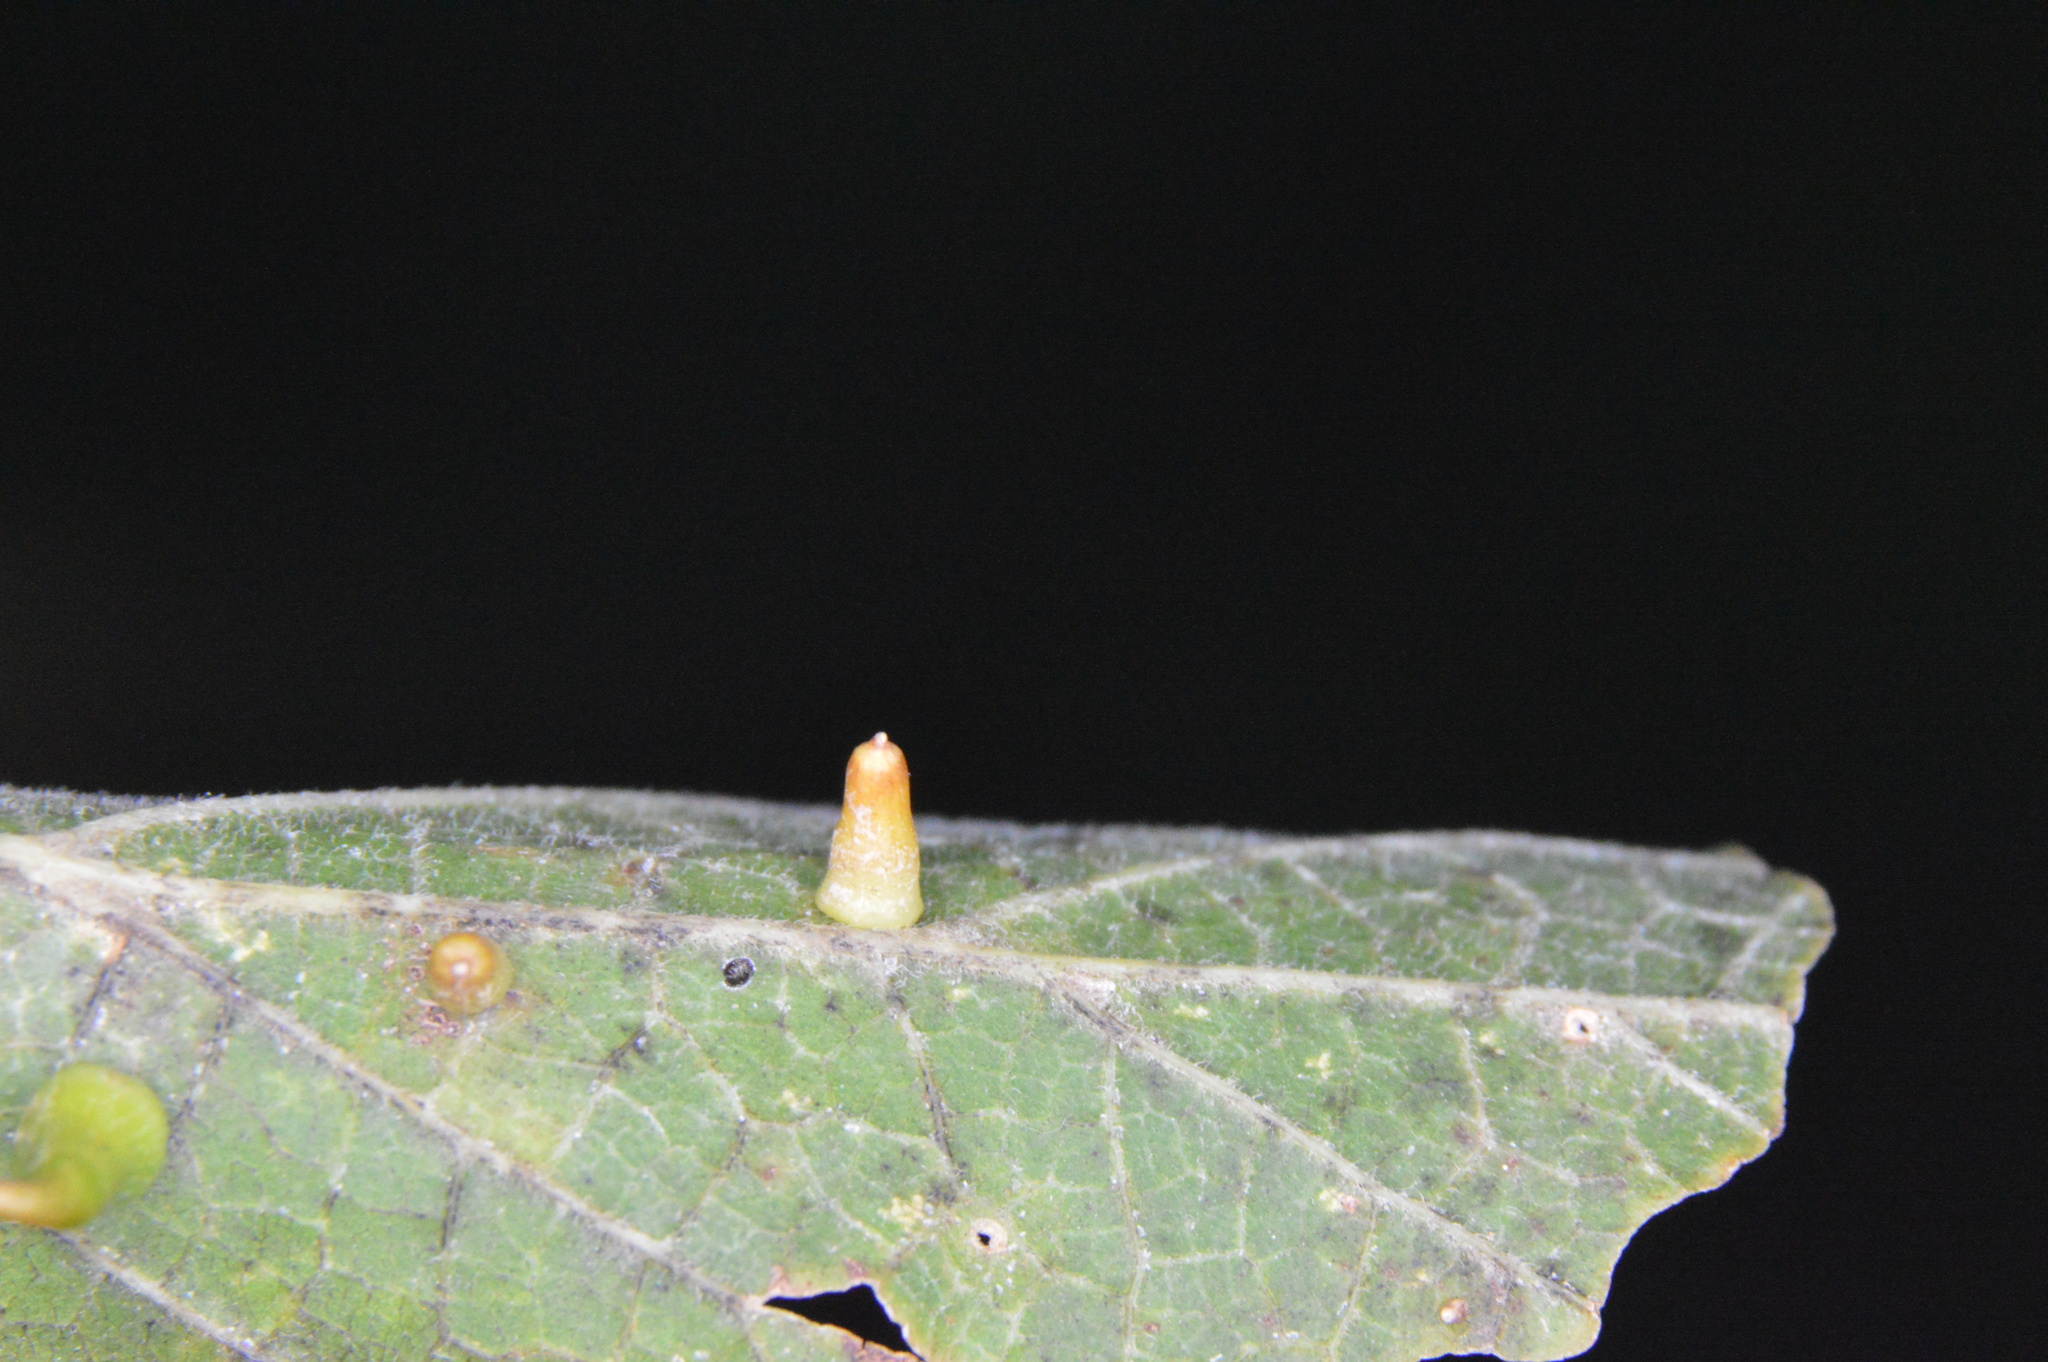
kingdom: Animalia
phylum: Arthropoda
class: Insecta
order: Diptera
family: Cecidomyiidae
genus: Celticecis
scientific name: Celticecis aciculata
